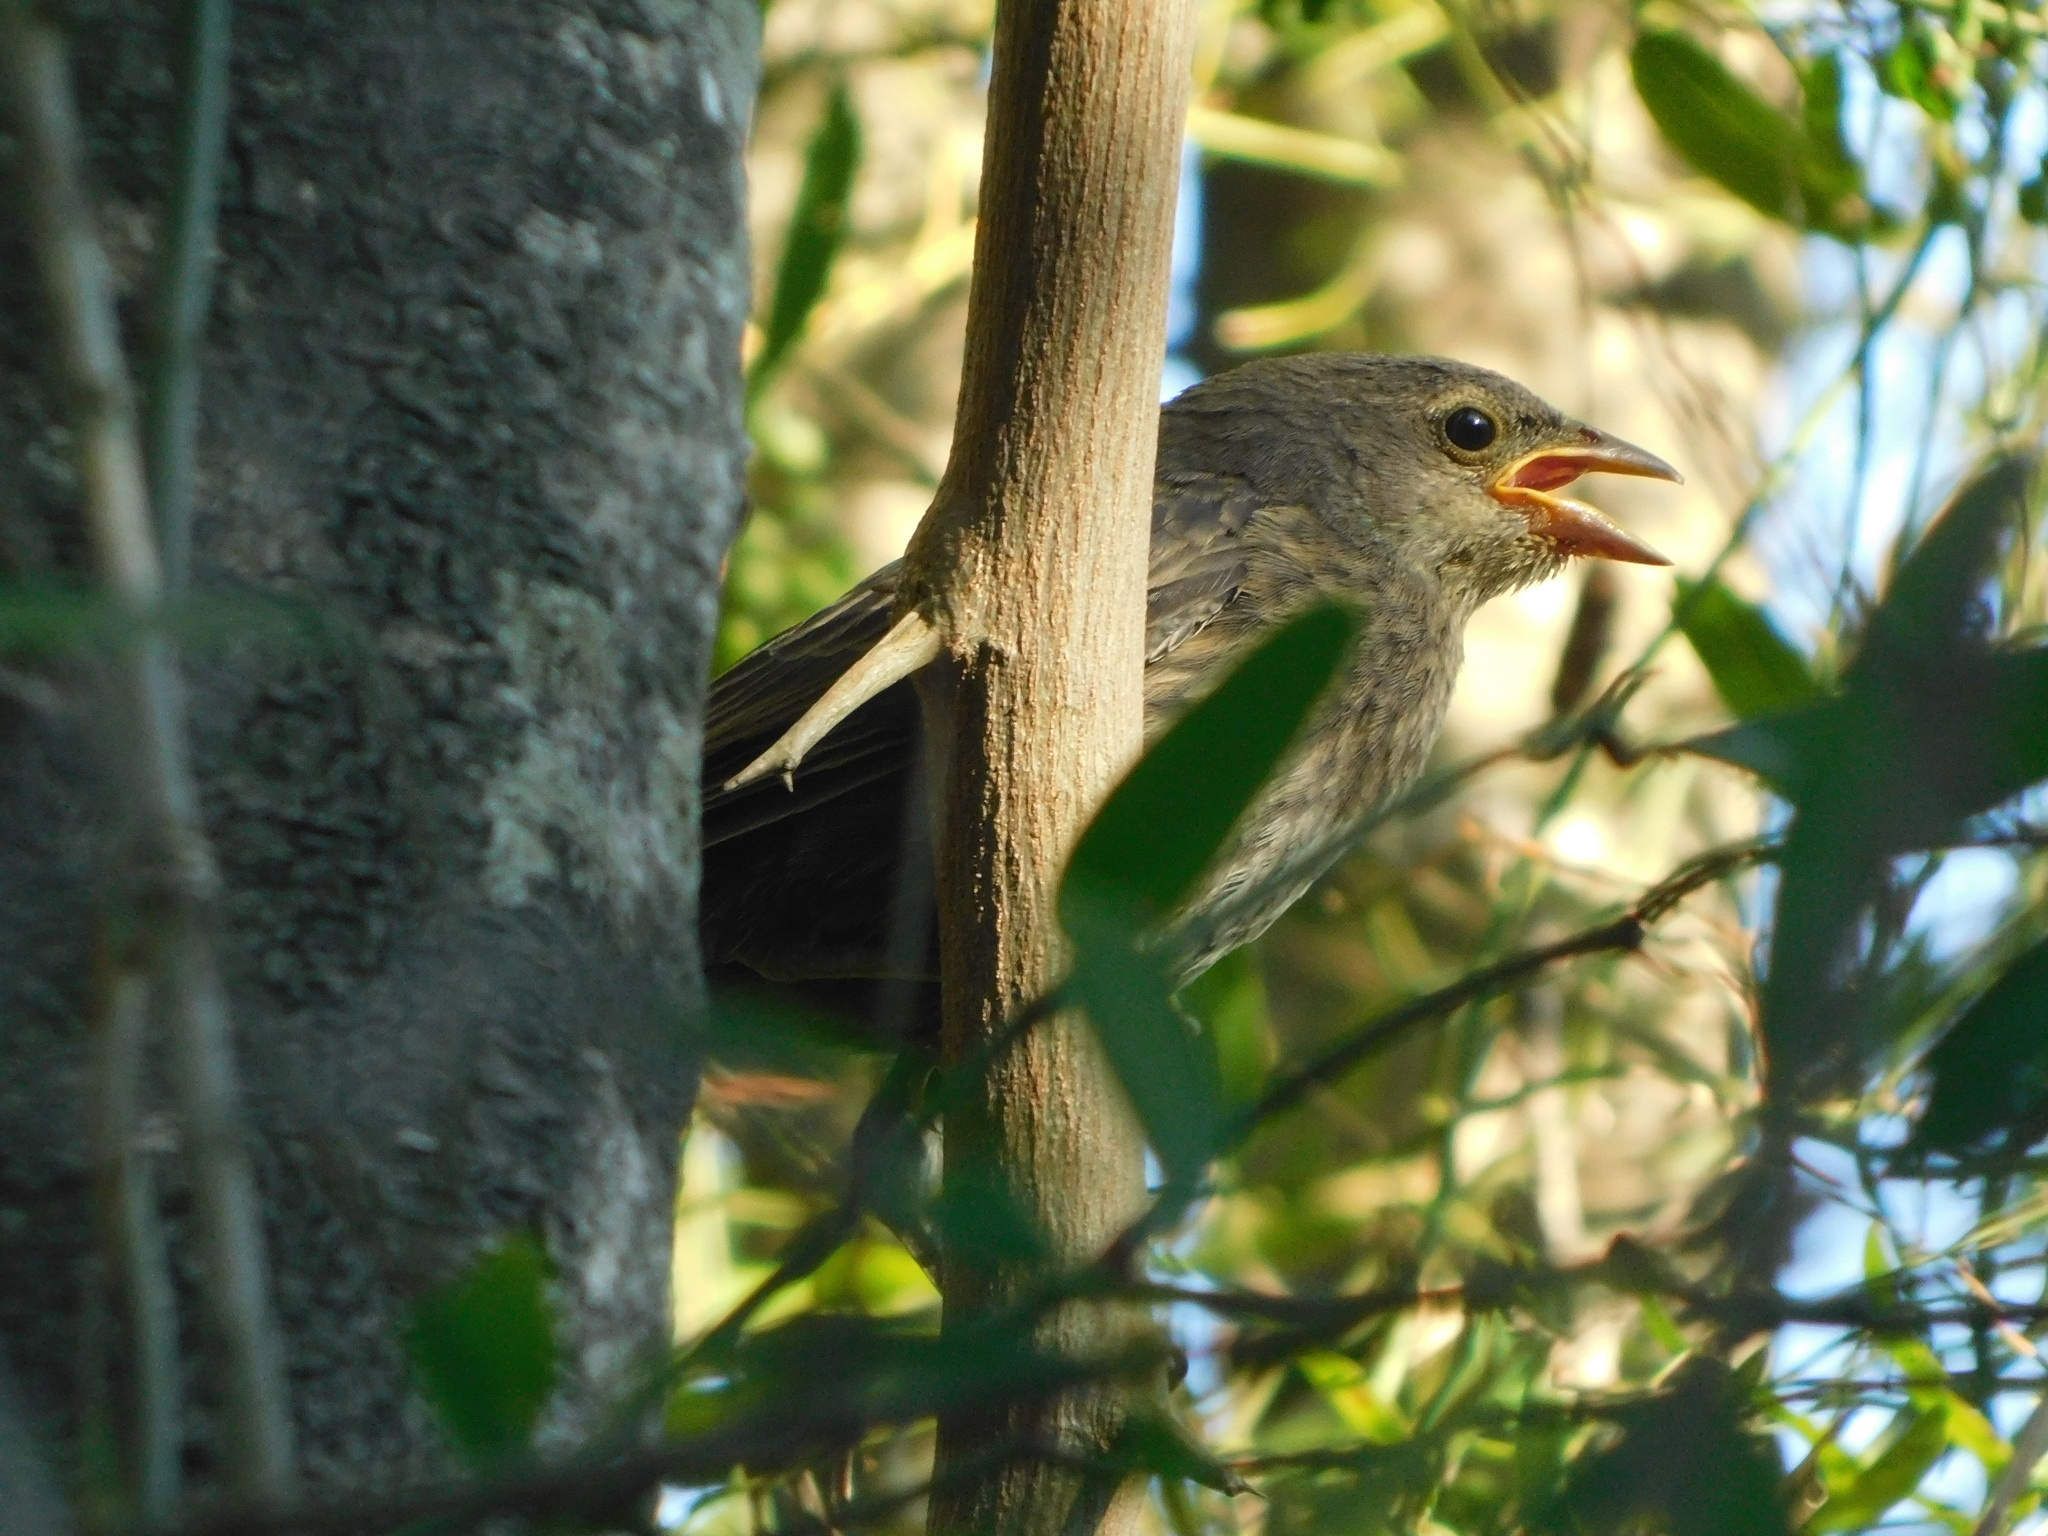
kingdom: Animalia
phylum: Chordata
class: Aves
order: Passeriformes
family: Icteridae
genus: Molothrus
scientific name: Molothrus bonariensis
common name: Shiny cowbird
